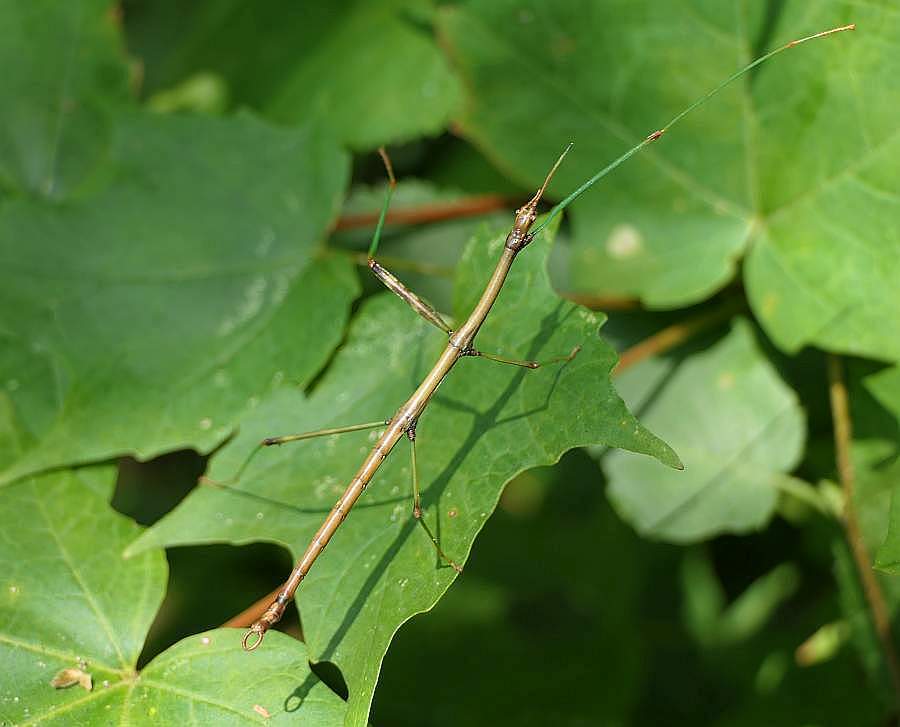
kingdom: Animalia
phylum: Arthropoda
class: Insecta
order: Phasmida
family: Diapheromeridae
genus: Diapheromera
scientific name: Diapheromera femorata
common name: Common american walkingstick
